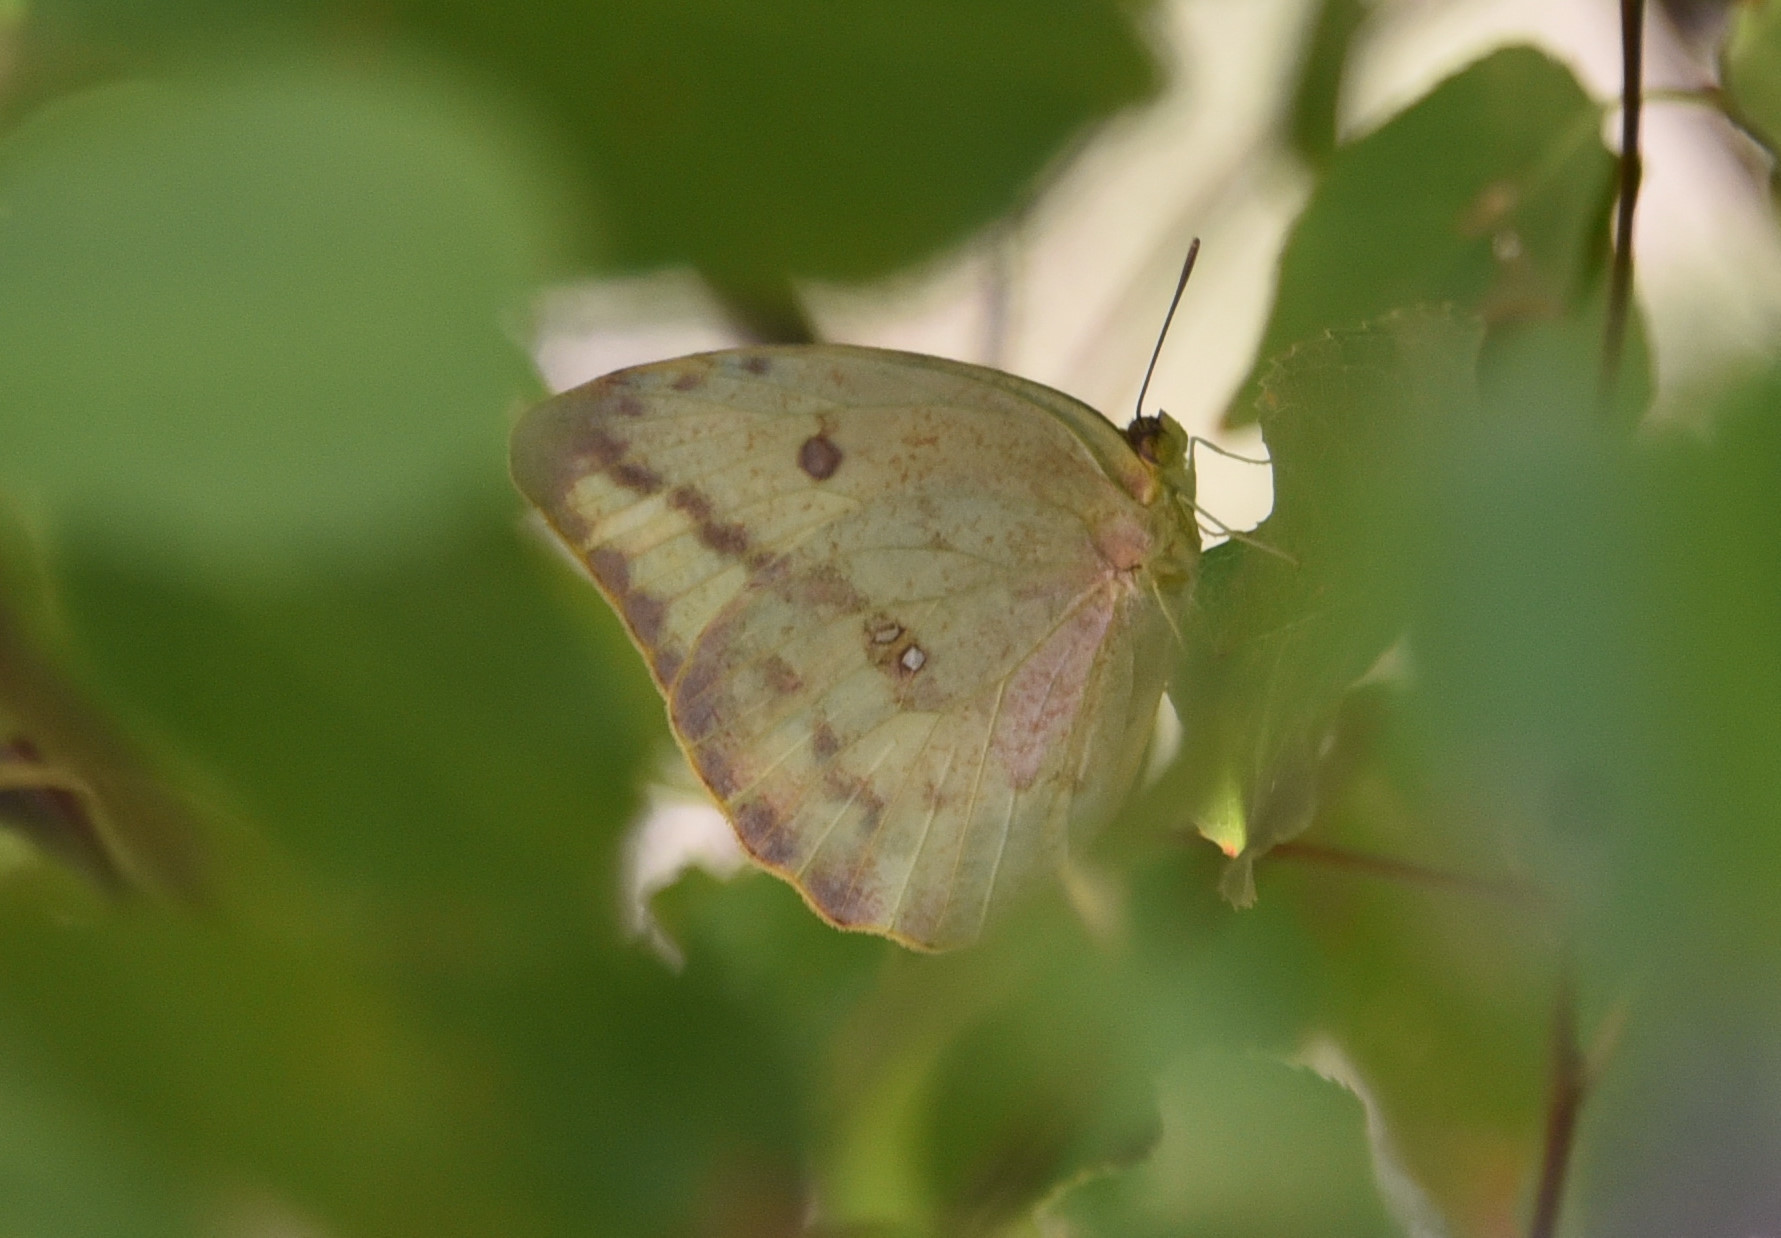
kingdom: Animalia
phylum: Arthropoda
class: Insecta
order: Lepidoptera
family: Pieridae
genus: Phoebis
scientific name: Phoebis agarithe
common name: Large orange sulphur
